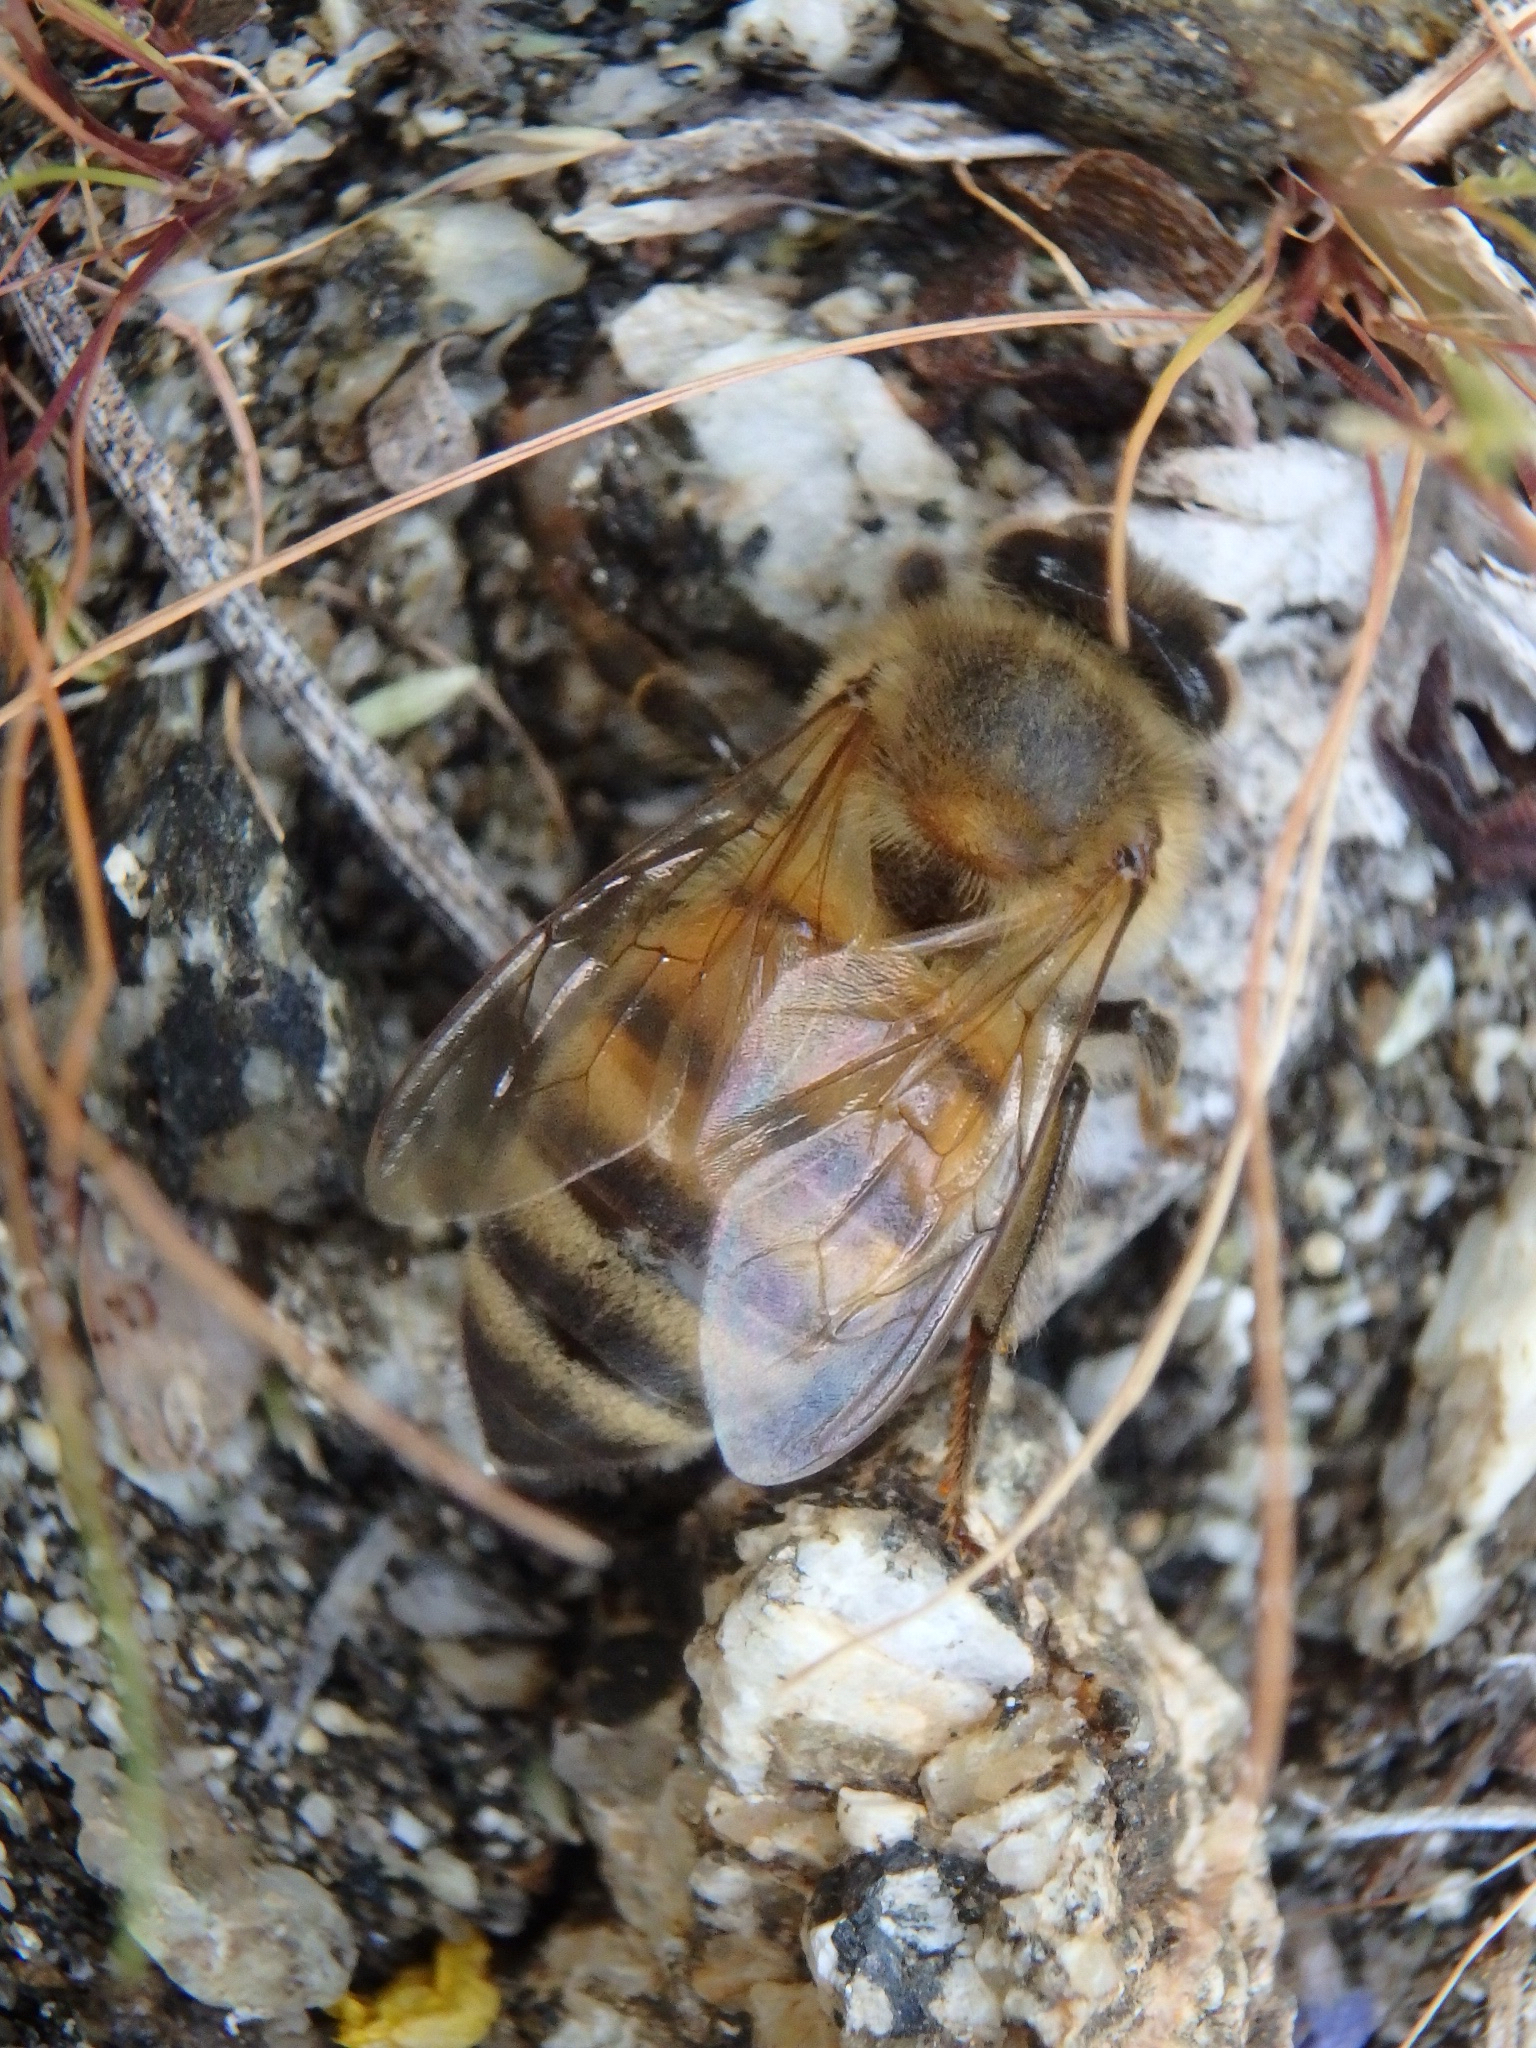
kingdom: Animalia
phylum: Arthropoda
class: Insecta
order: Hymenoptera
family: Apidae
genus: Apis
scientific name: Apis mellifera
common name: Honey bee
